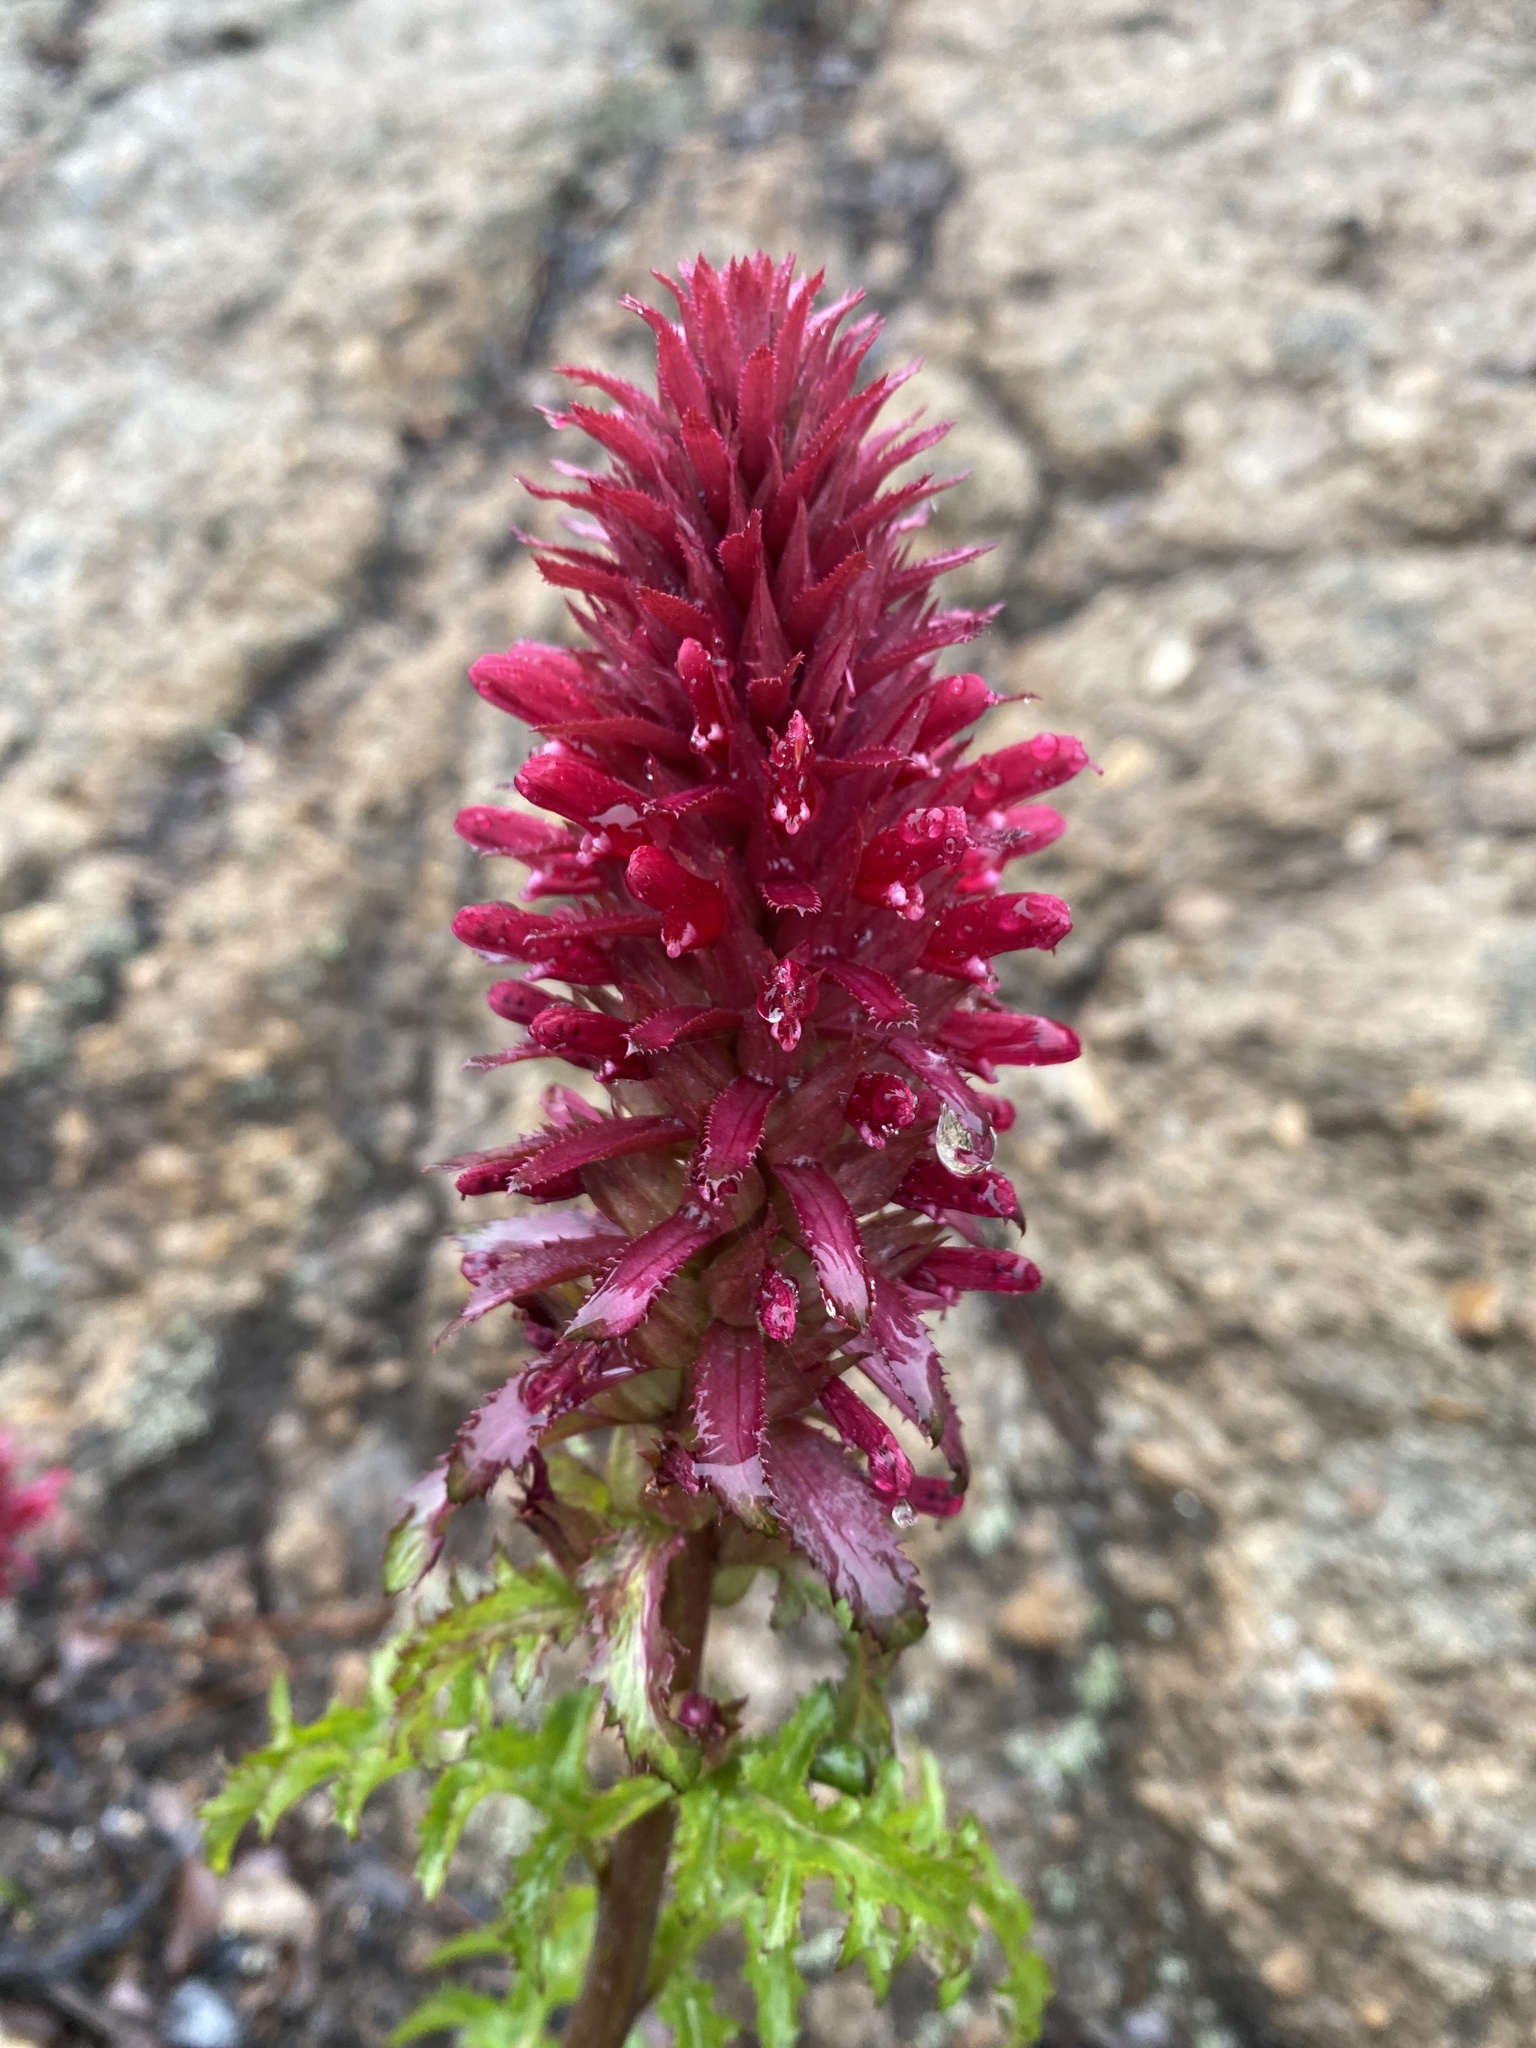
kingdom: Plantae
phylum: Tracheophyta
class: Magnoliopsida
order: Lamiales
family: Orobanchaceae
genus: Pedicularis
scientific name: Pedicularis densiflora
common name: Indian warrior
